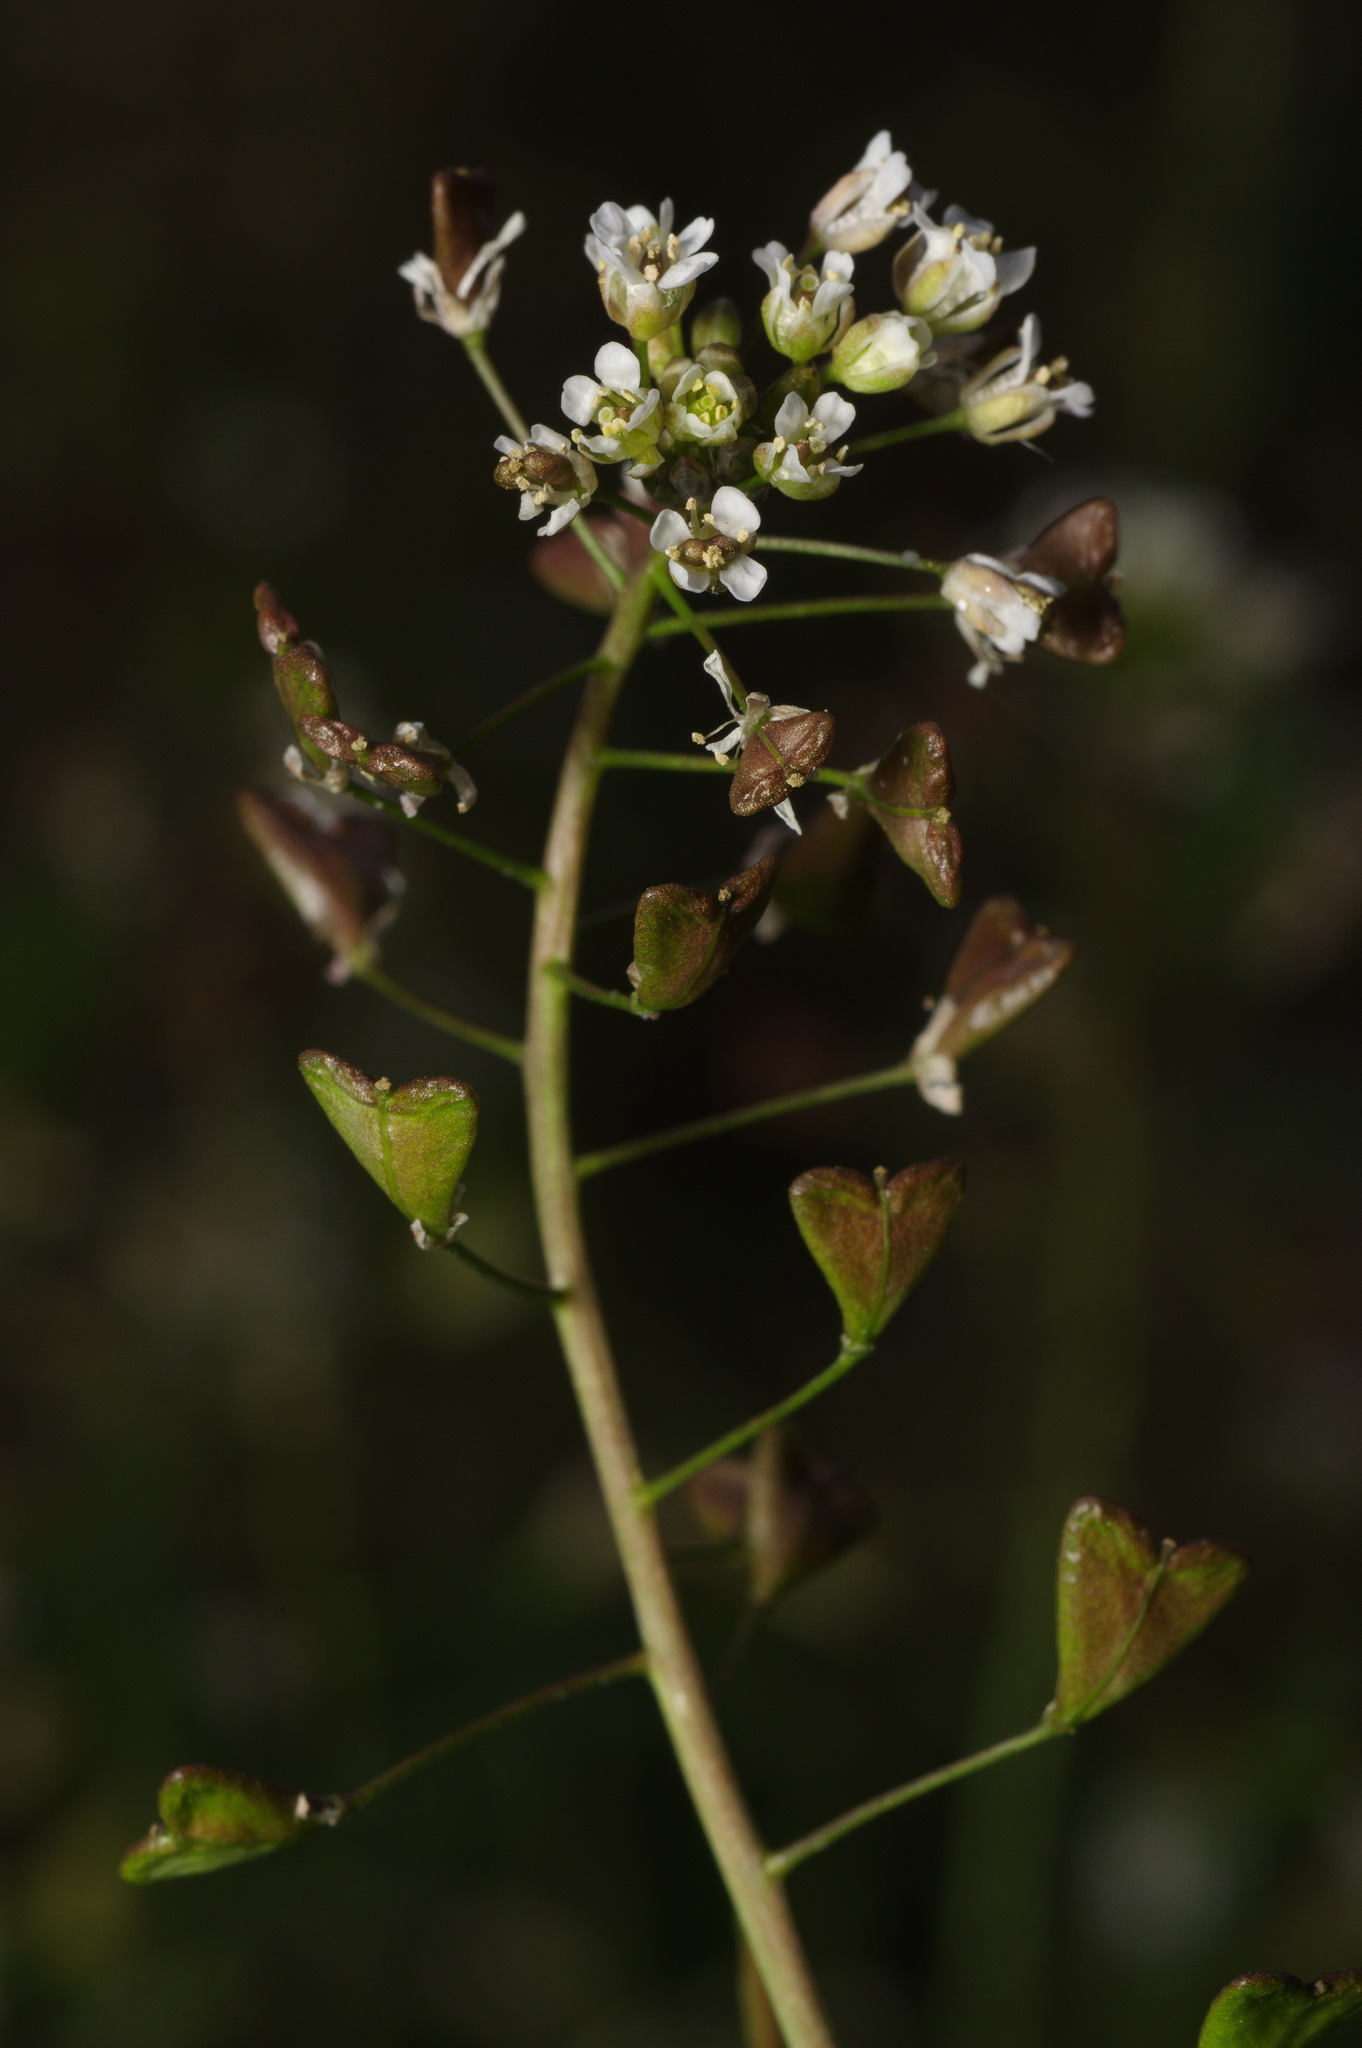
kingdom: Plantae
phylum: Tracheophyta
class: Magnoliopsida
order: Brassicales
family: Brassicaceae
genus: Capsella
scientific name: Capsella bursa-pastoris
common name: Shepherd's purse
